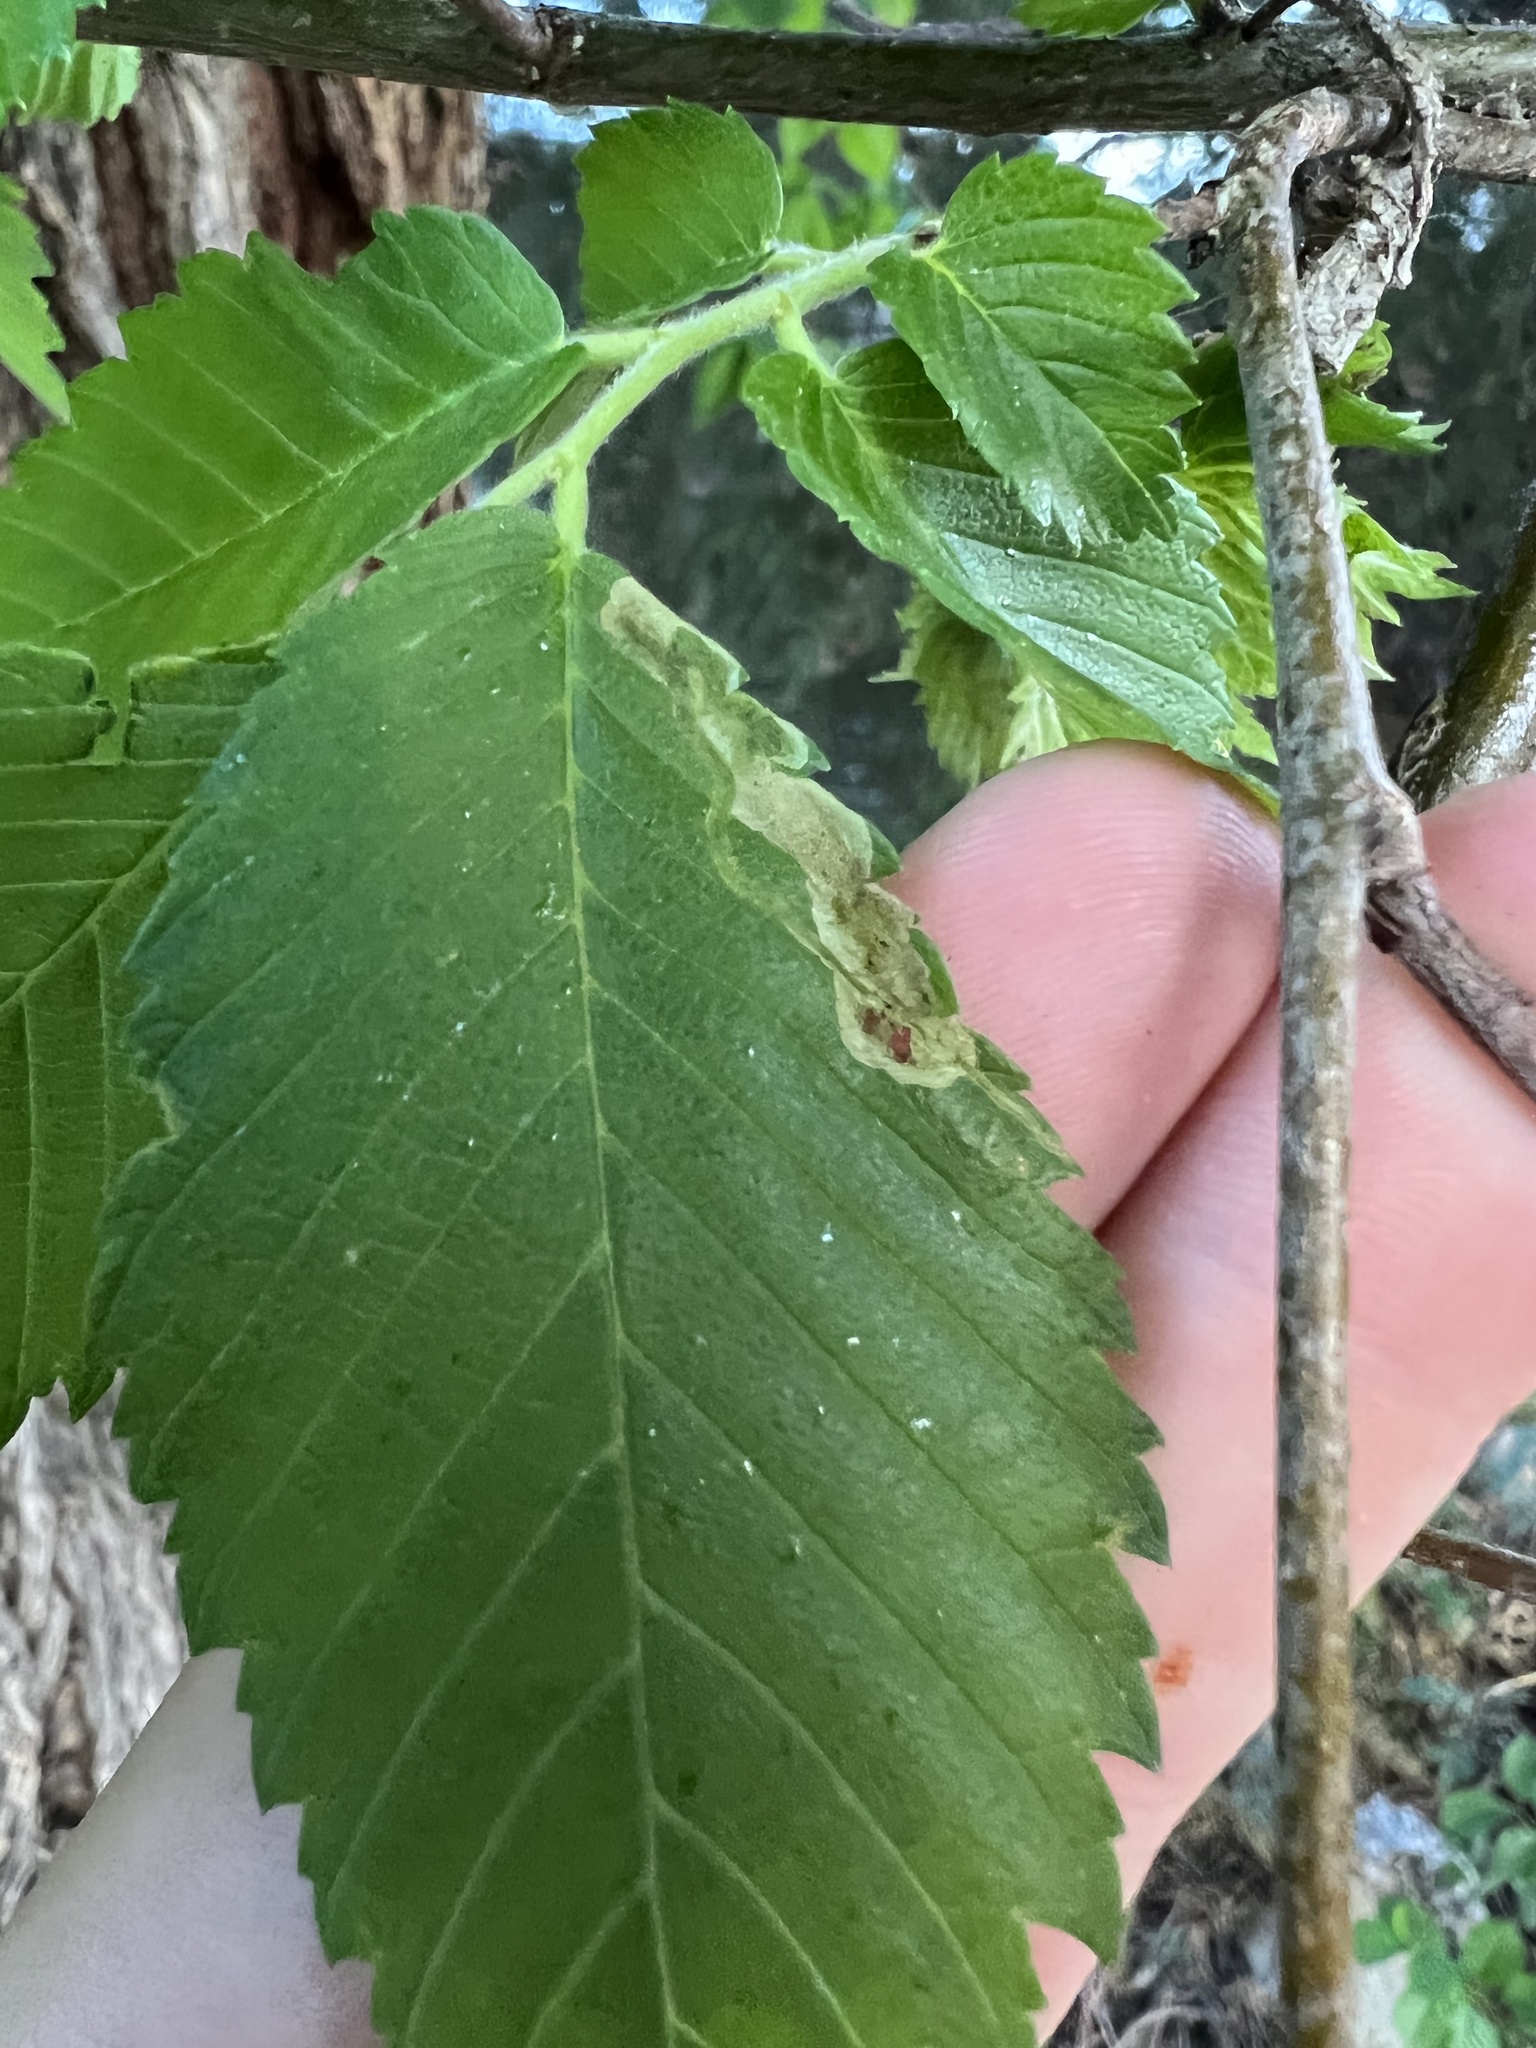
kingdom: Animalia
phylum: Arthropoda
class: Insecta
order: Diptera
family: Agromyzidae
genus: Agromyza
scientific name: Agromyza aristata
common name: Elm agromyzid leafminer
